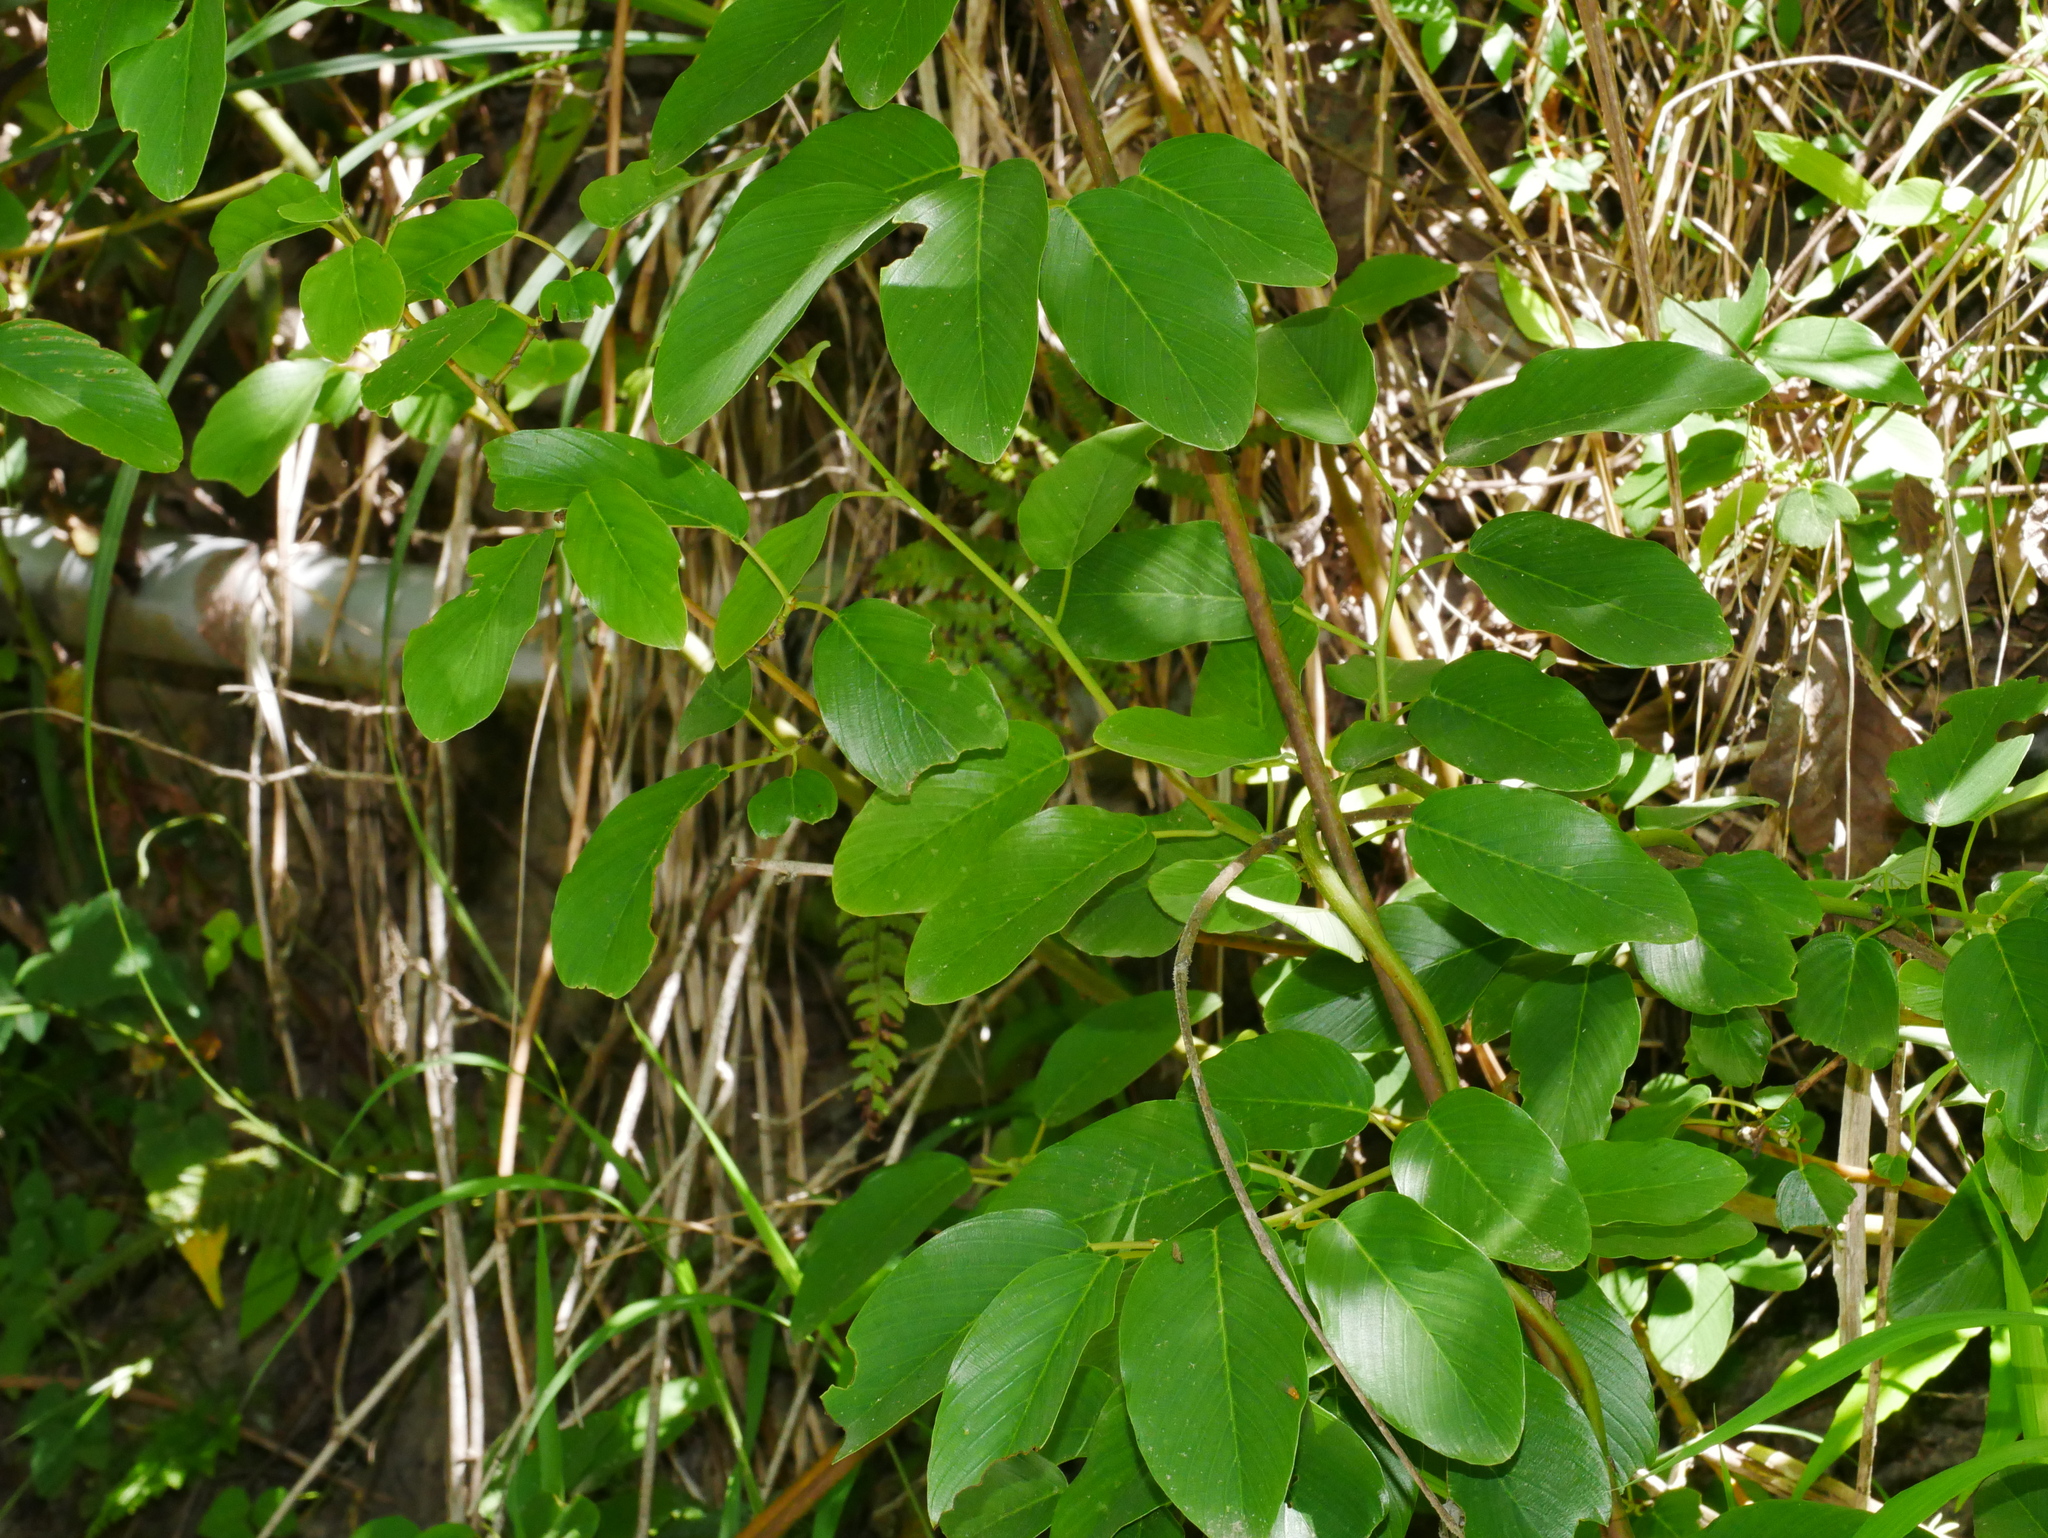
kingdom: Plantae
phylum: Tracheophyta
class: Magnoliopsida
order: Rosales
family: Rhamnaceae
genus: Berchemia
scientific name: Berchemia floribunda
